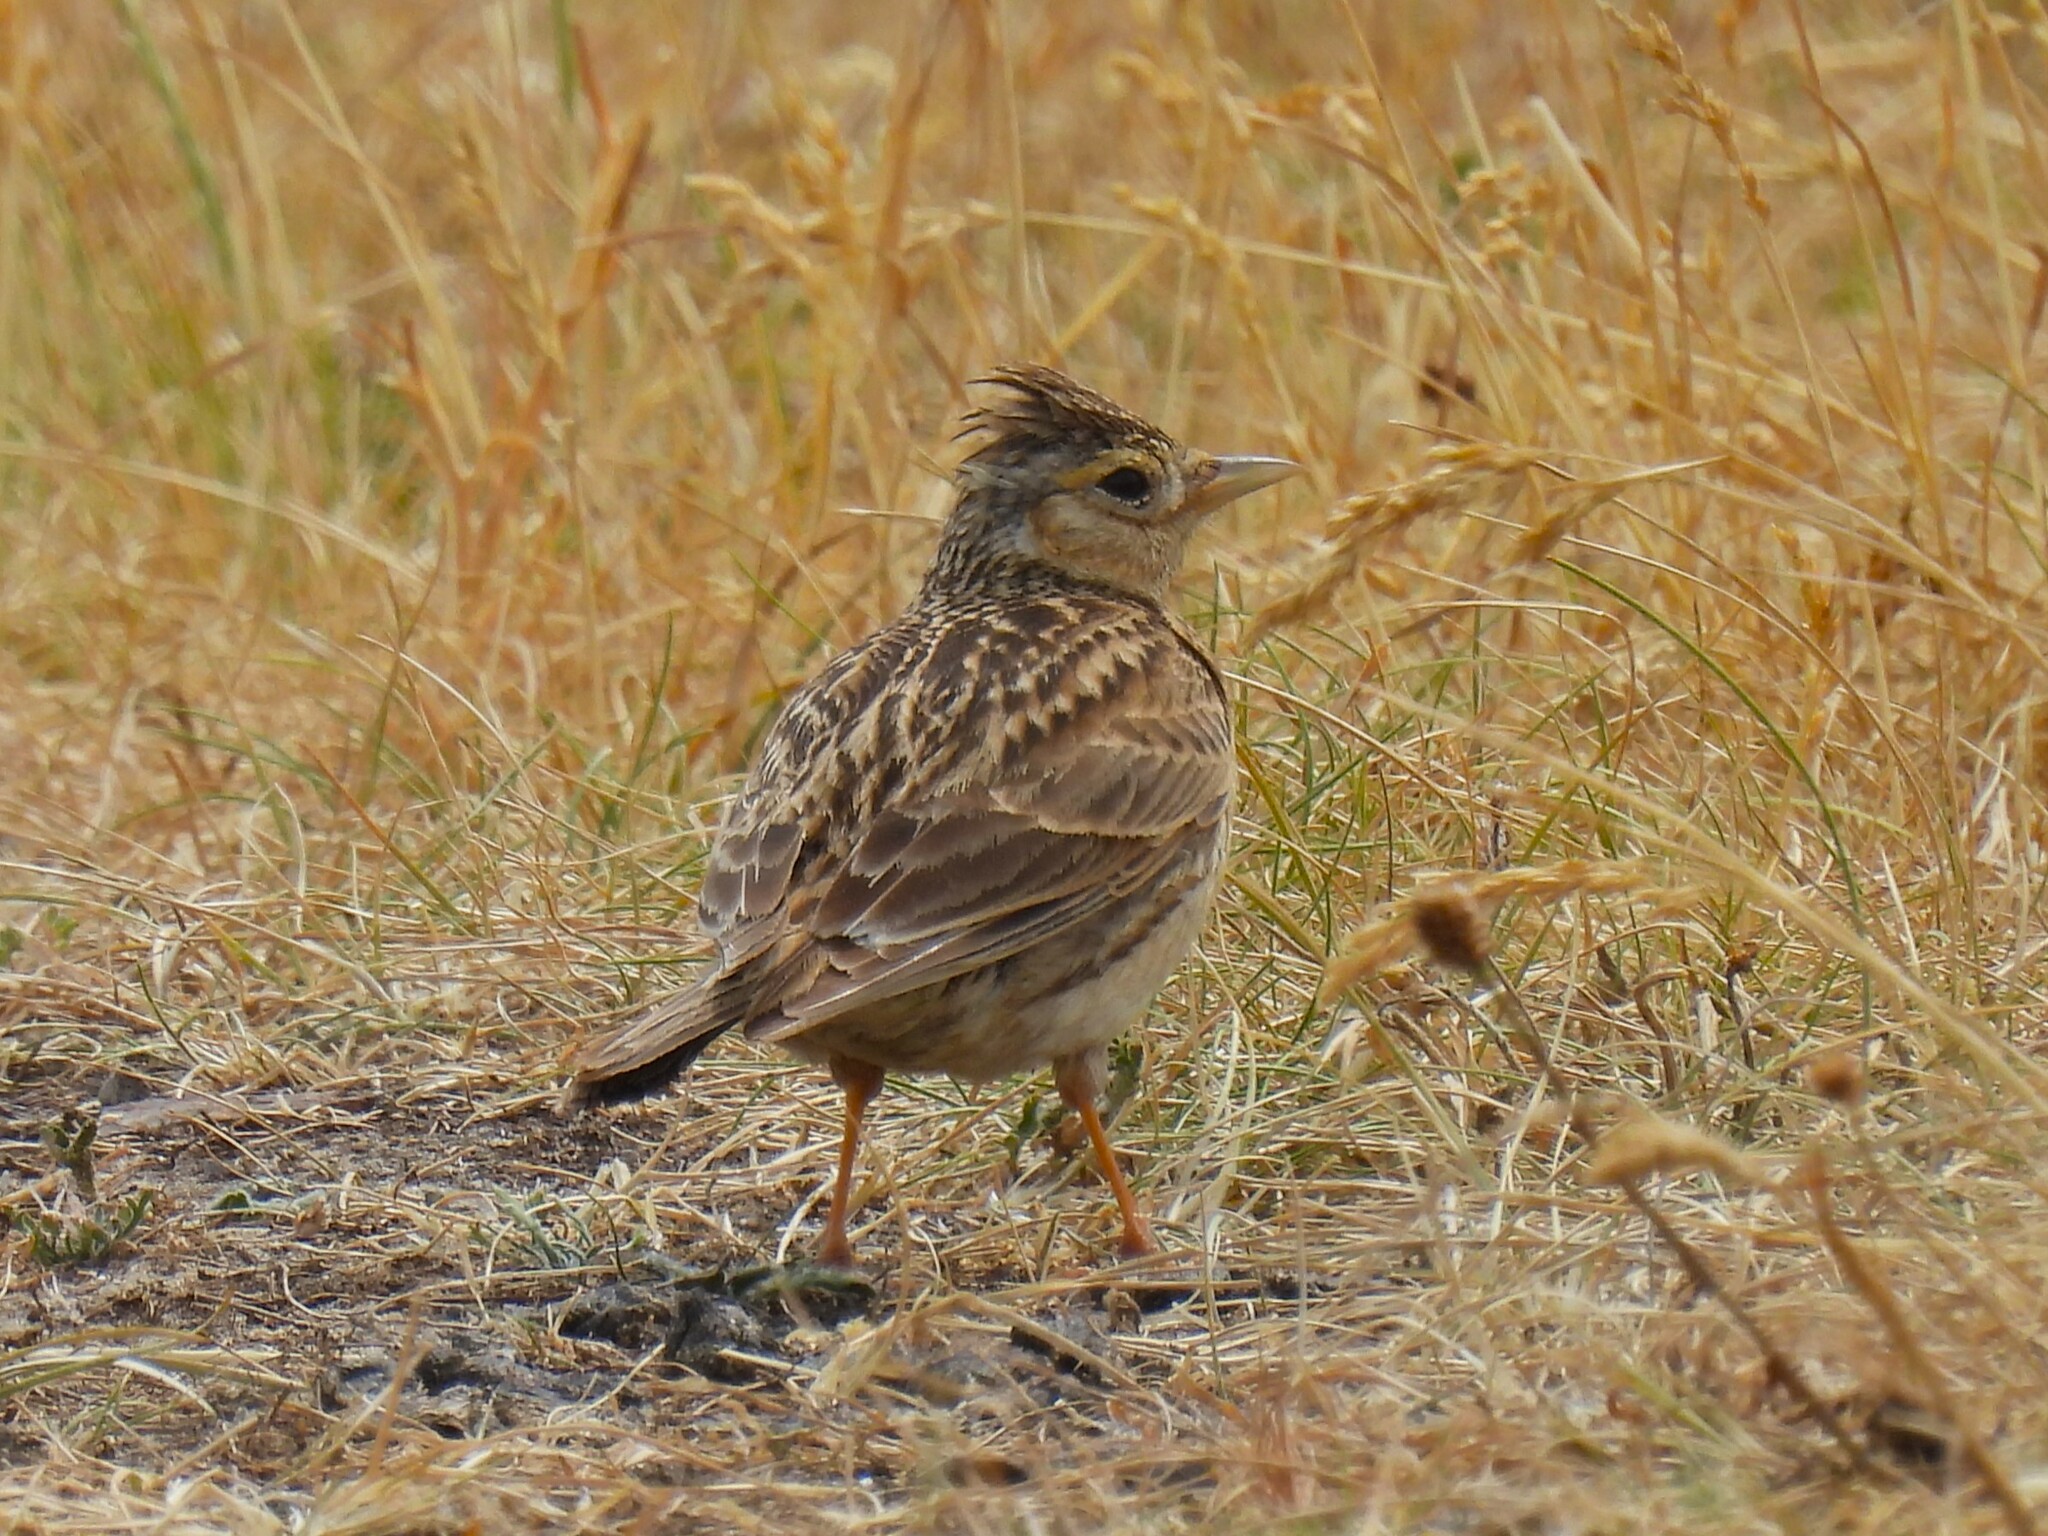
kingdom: Animalia
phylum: Chordata
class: Aves
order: Passeriformes
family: Alaudidae
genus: Alauda
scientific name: Alauda arvensis
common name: Eurasian skylark
